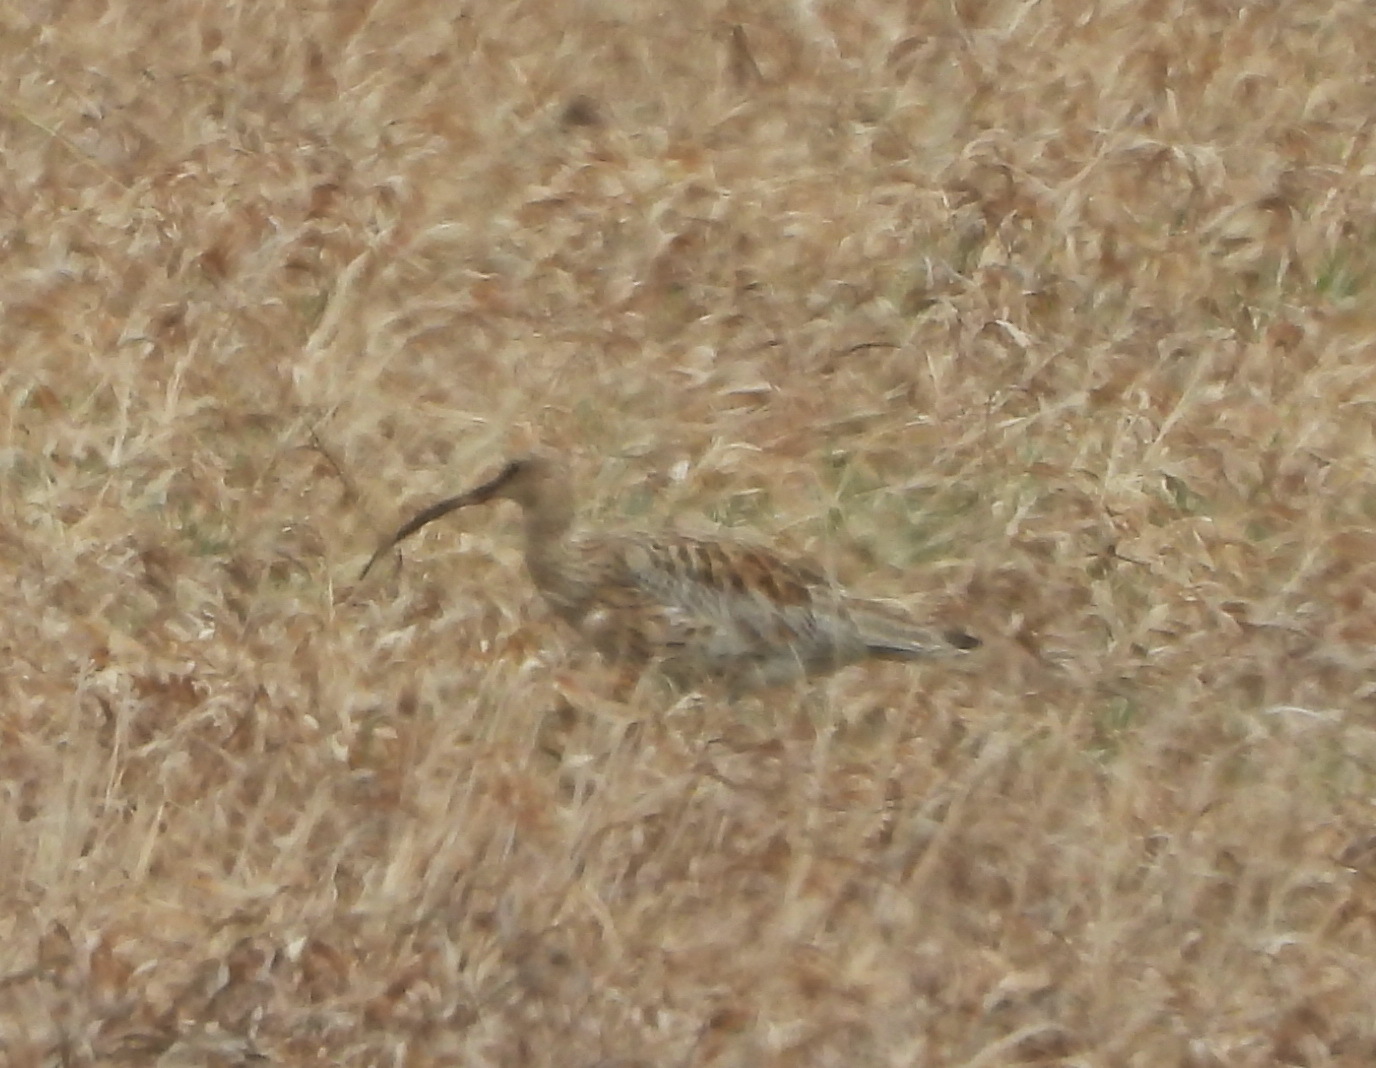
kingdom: Animalia
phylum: Chordata
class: Aves
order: Charadriiformes
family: Scolopacidae
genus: Numenius
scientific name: Numenius arquata
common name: Eurasian curlew
